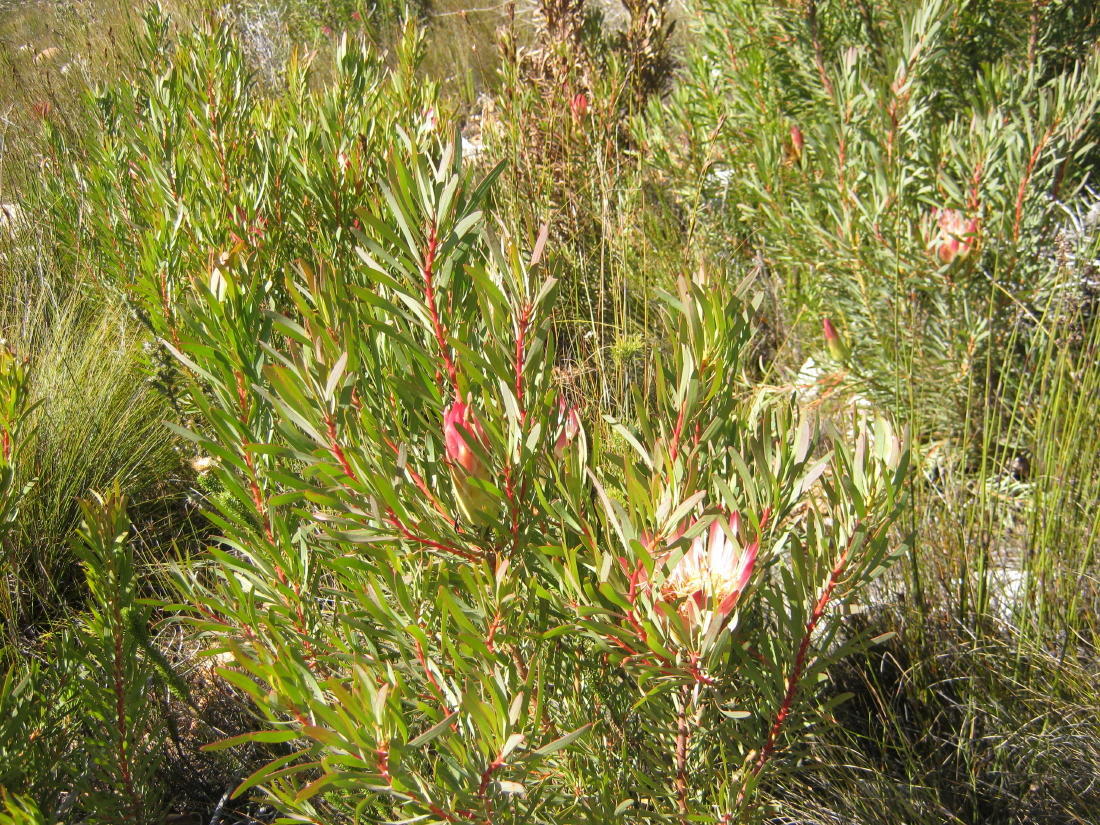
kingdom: Plantae
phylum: Tracheophyta
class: Magnoliopsida
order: Proteales
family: Proteaceae
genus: Protea
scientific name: Protea repens
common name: Sugarbush
